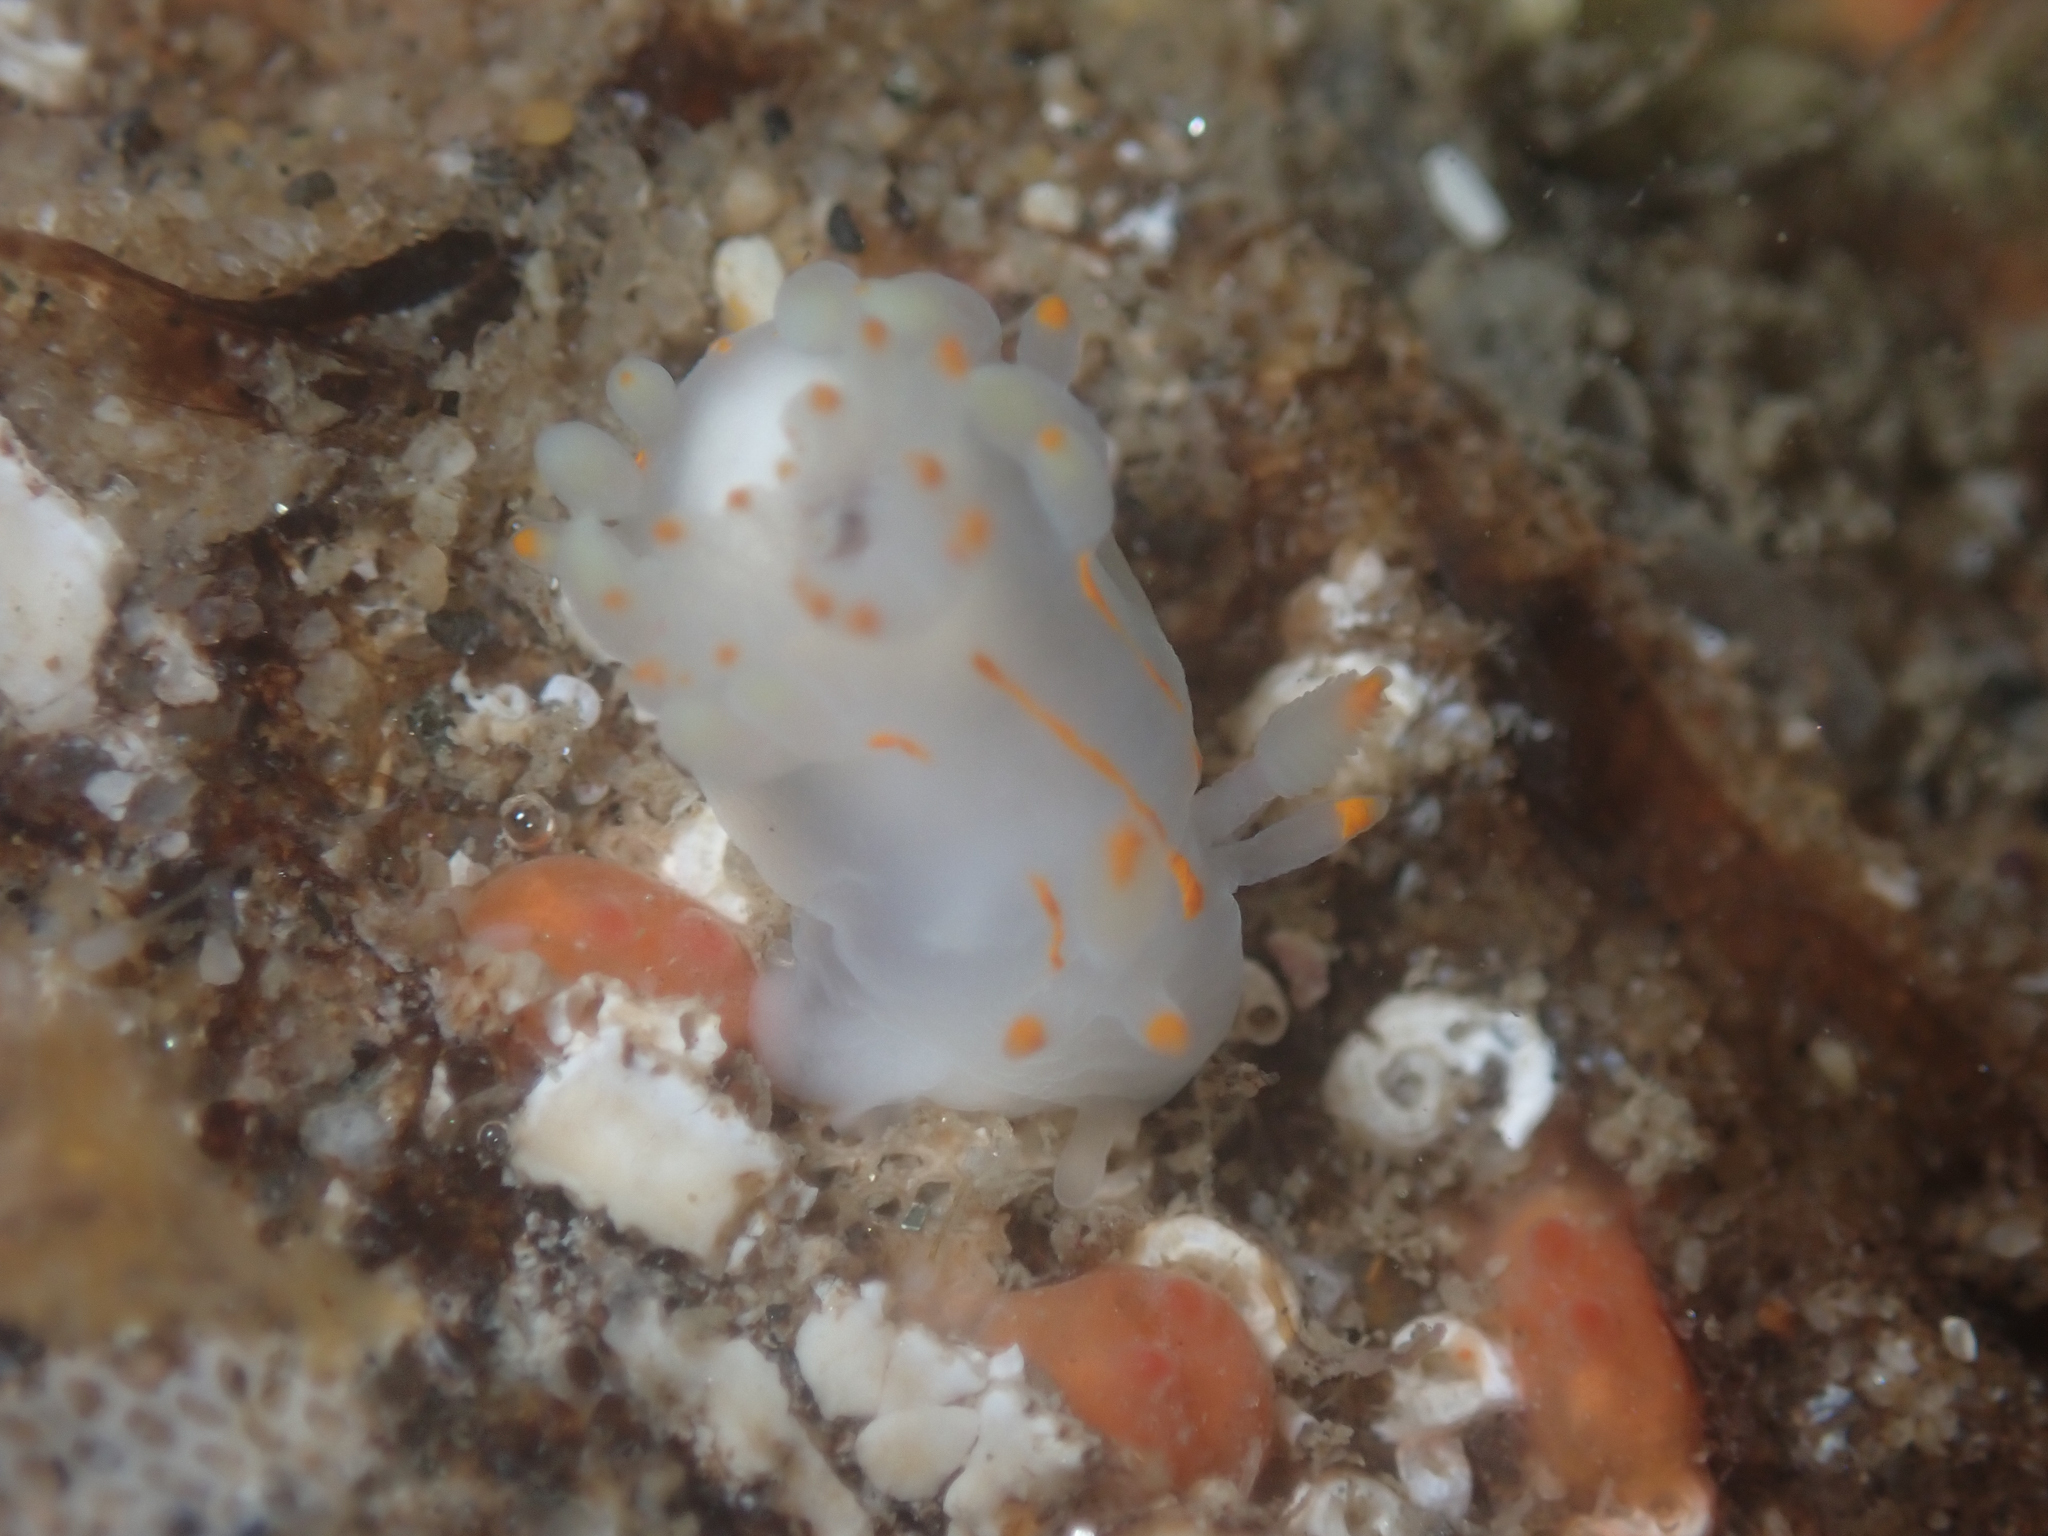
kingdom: Animalia
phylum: Mollusca
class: Gastropoda
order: Nudibranchia
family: Goniodorididae
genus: Ancula
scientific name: Ancula pacifica
